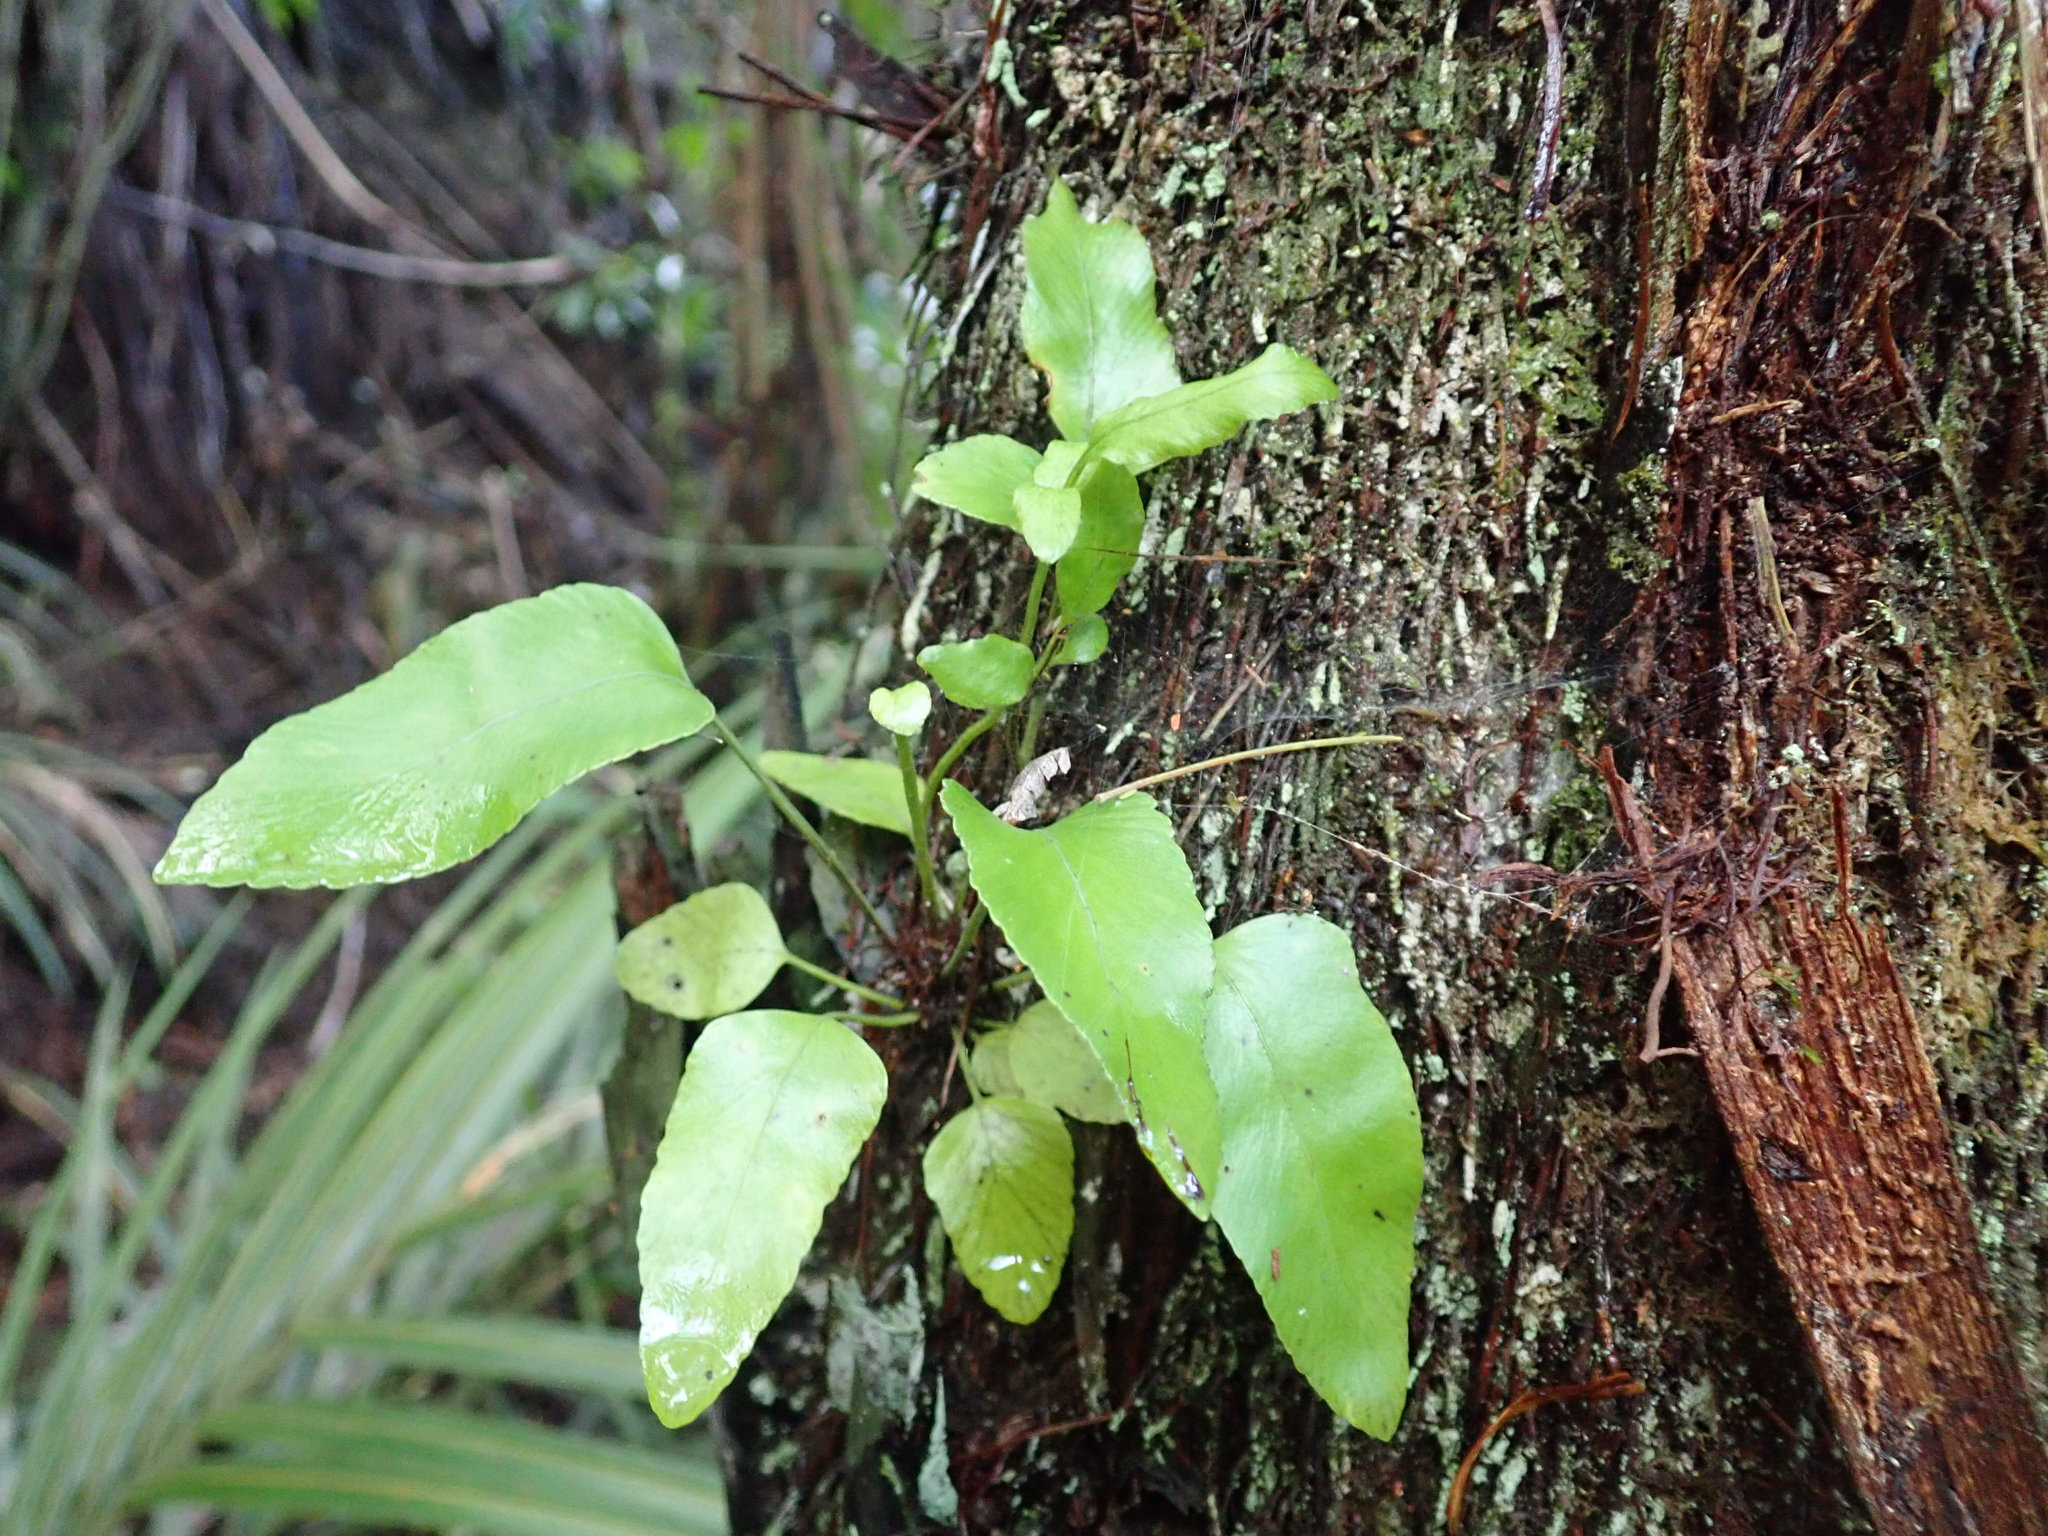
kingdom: Plantae
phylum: Tracheophyta
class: Polypodiopsida
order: Polypodiales
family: Aspleniaceae
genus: Asplenium
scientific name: Asplenium oblongifolium
